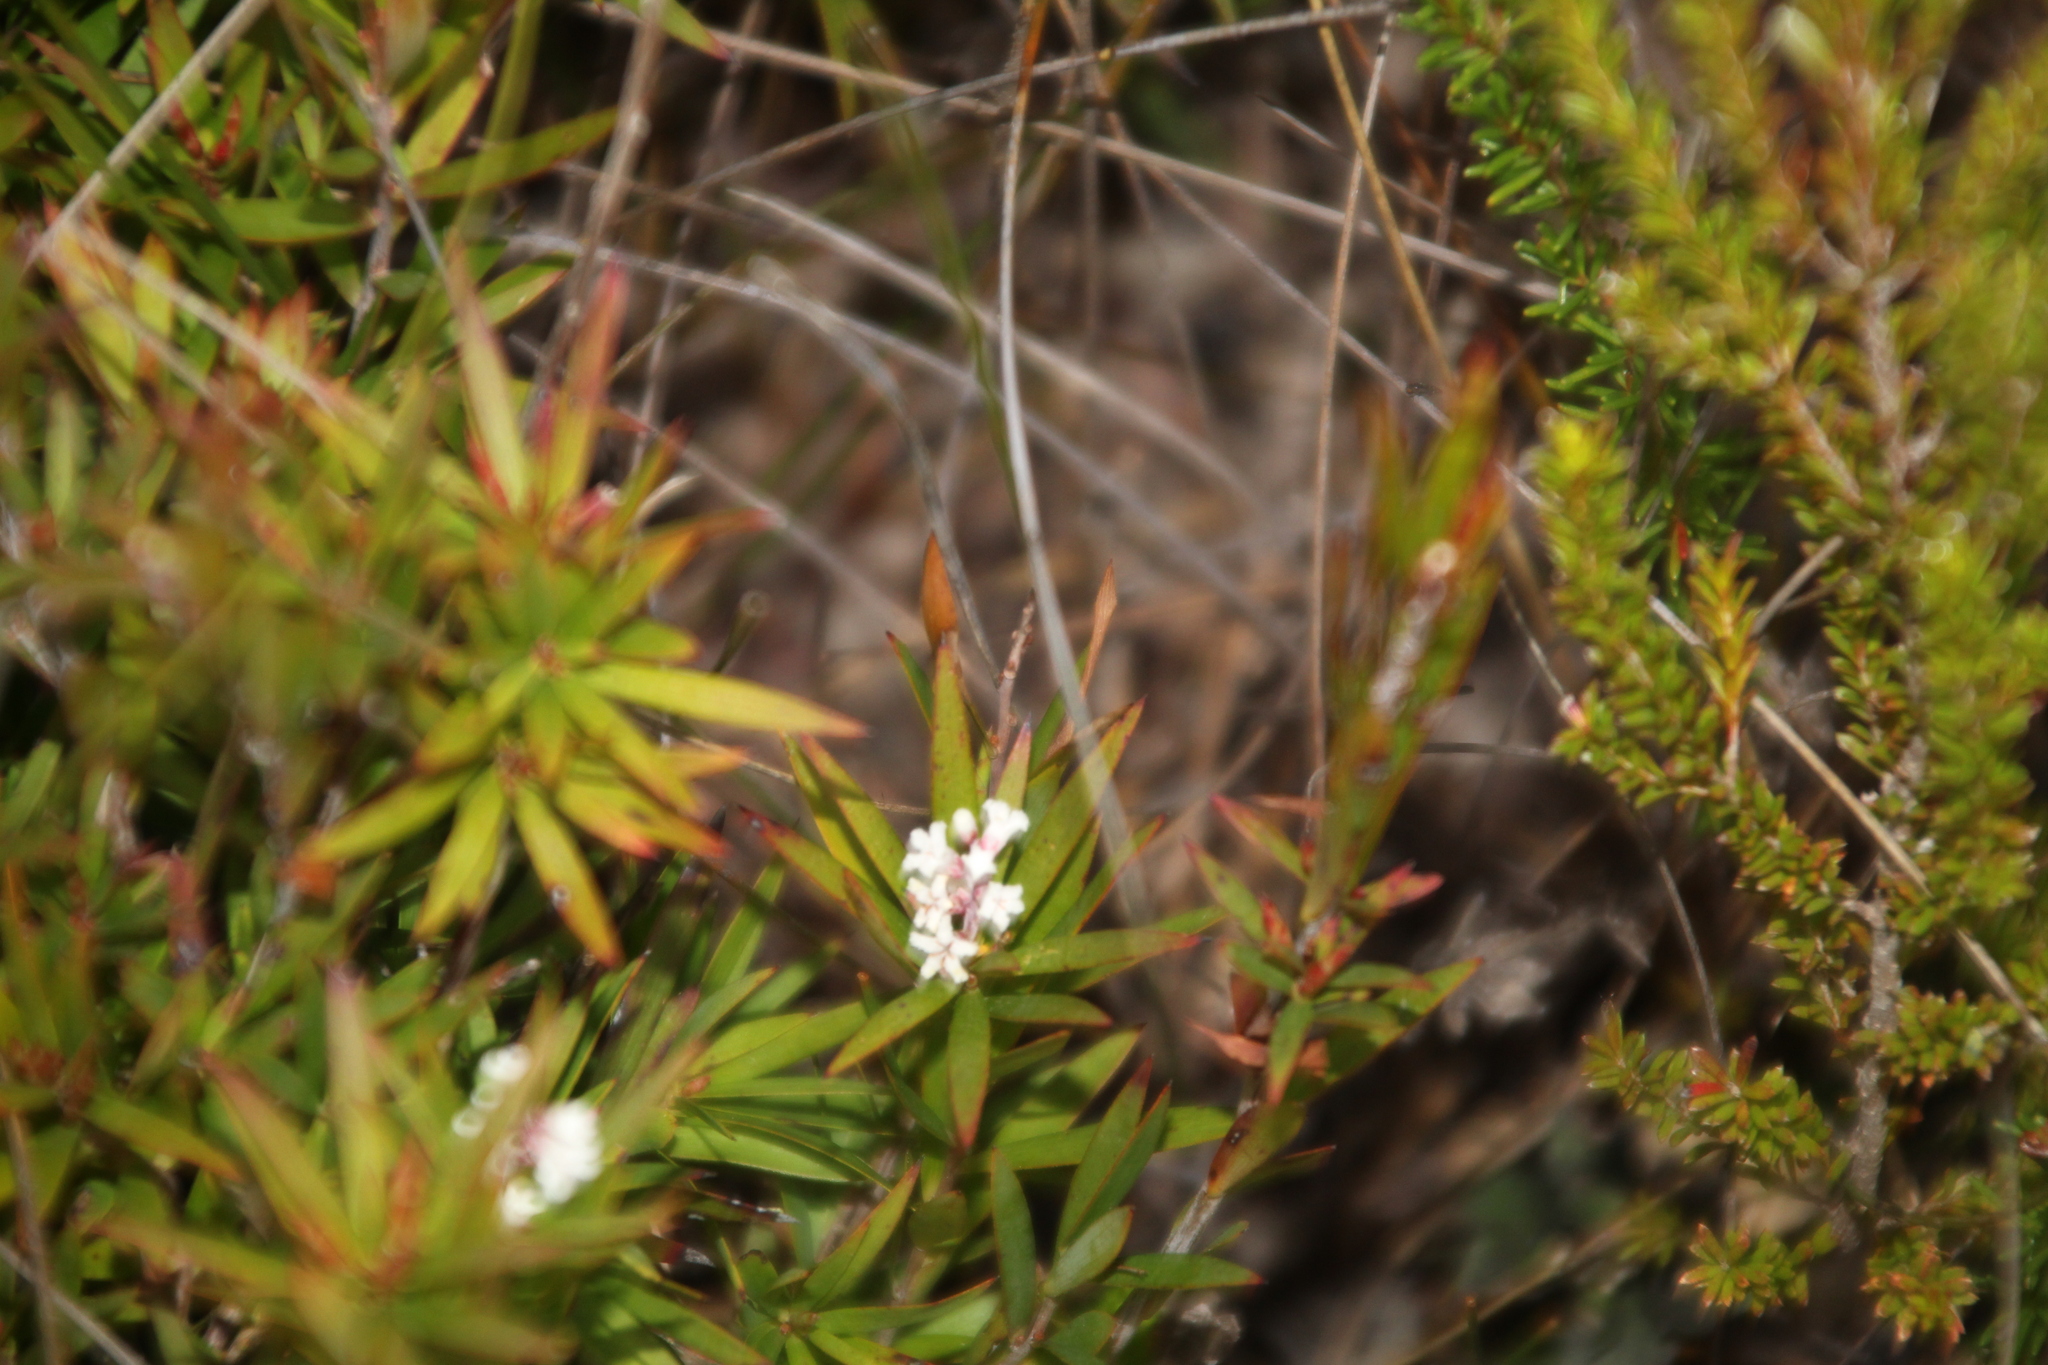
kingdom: Plantae
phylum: Tracheophyta
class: Magnoliopsida
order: Ericales
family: Ericaceae
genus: Leucopogon
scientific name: Leucopogon australis
